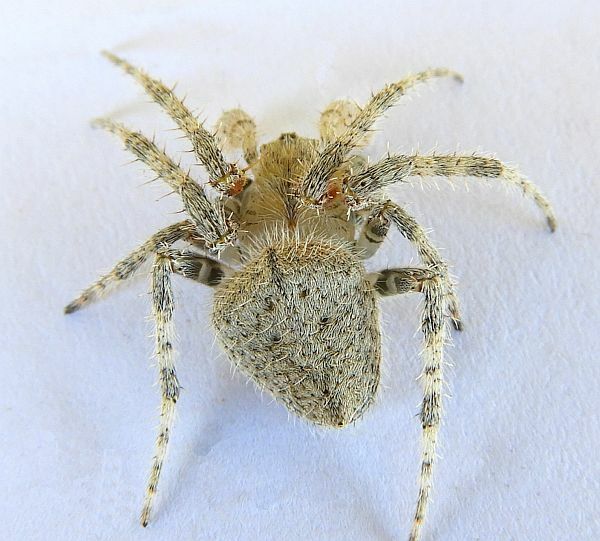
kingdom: Animalia
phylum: Arthropoda
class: Arachnida
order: Araneae
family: Araneidae
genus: Eriophora
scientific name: Eriophora edax
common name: Orb weavers
